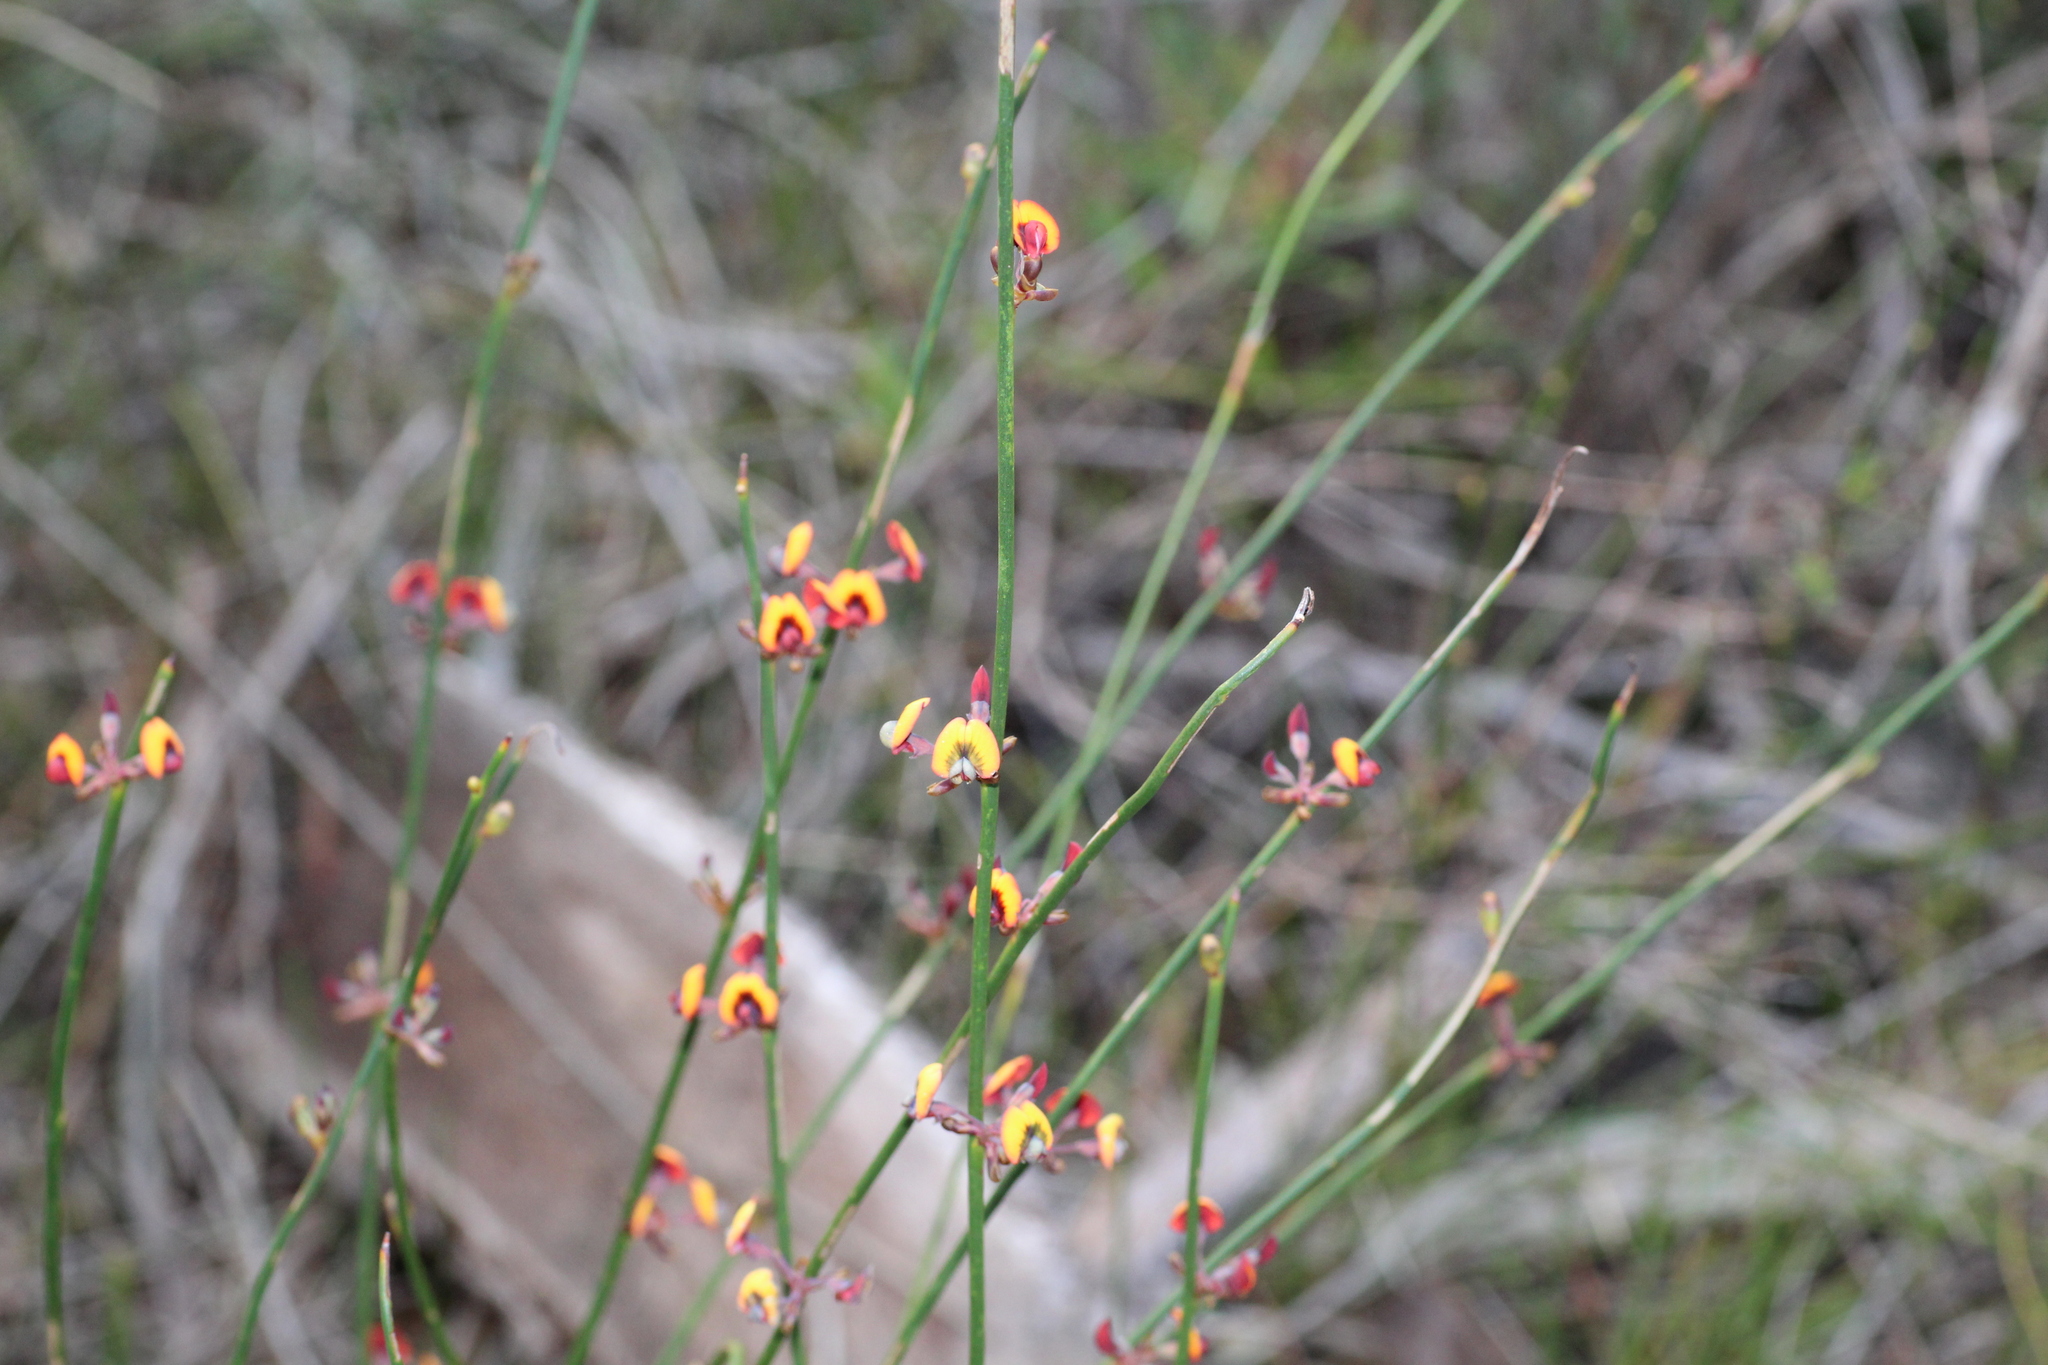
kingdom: Plantae
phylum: Tracheophyta
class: Magnoliopsida
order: Fabales
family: Fabaceae
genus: Daviesia
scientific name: Daviesia triflora
